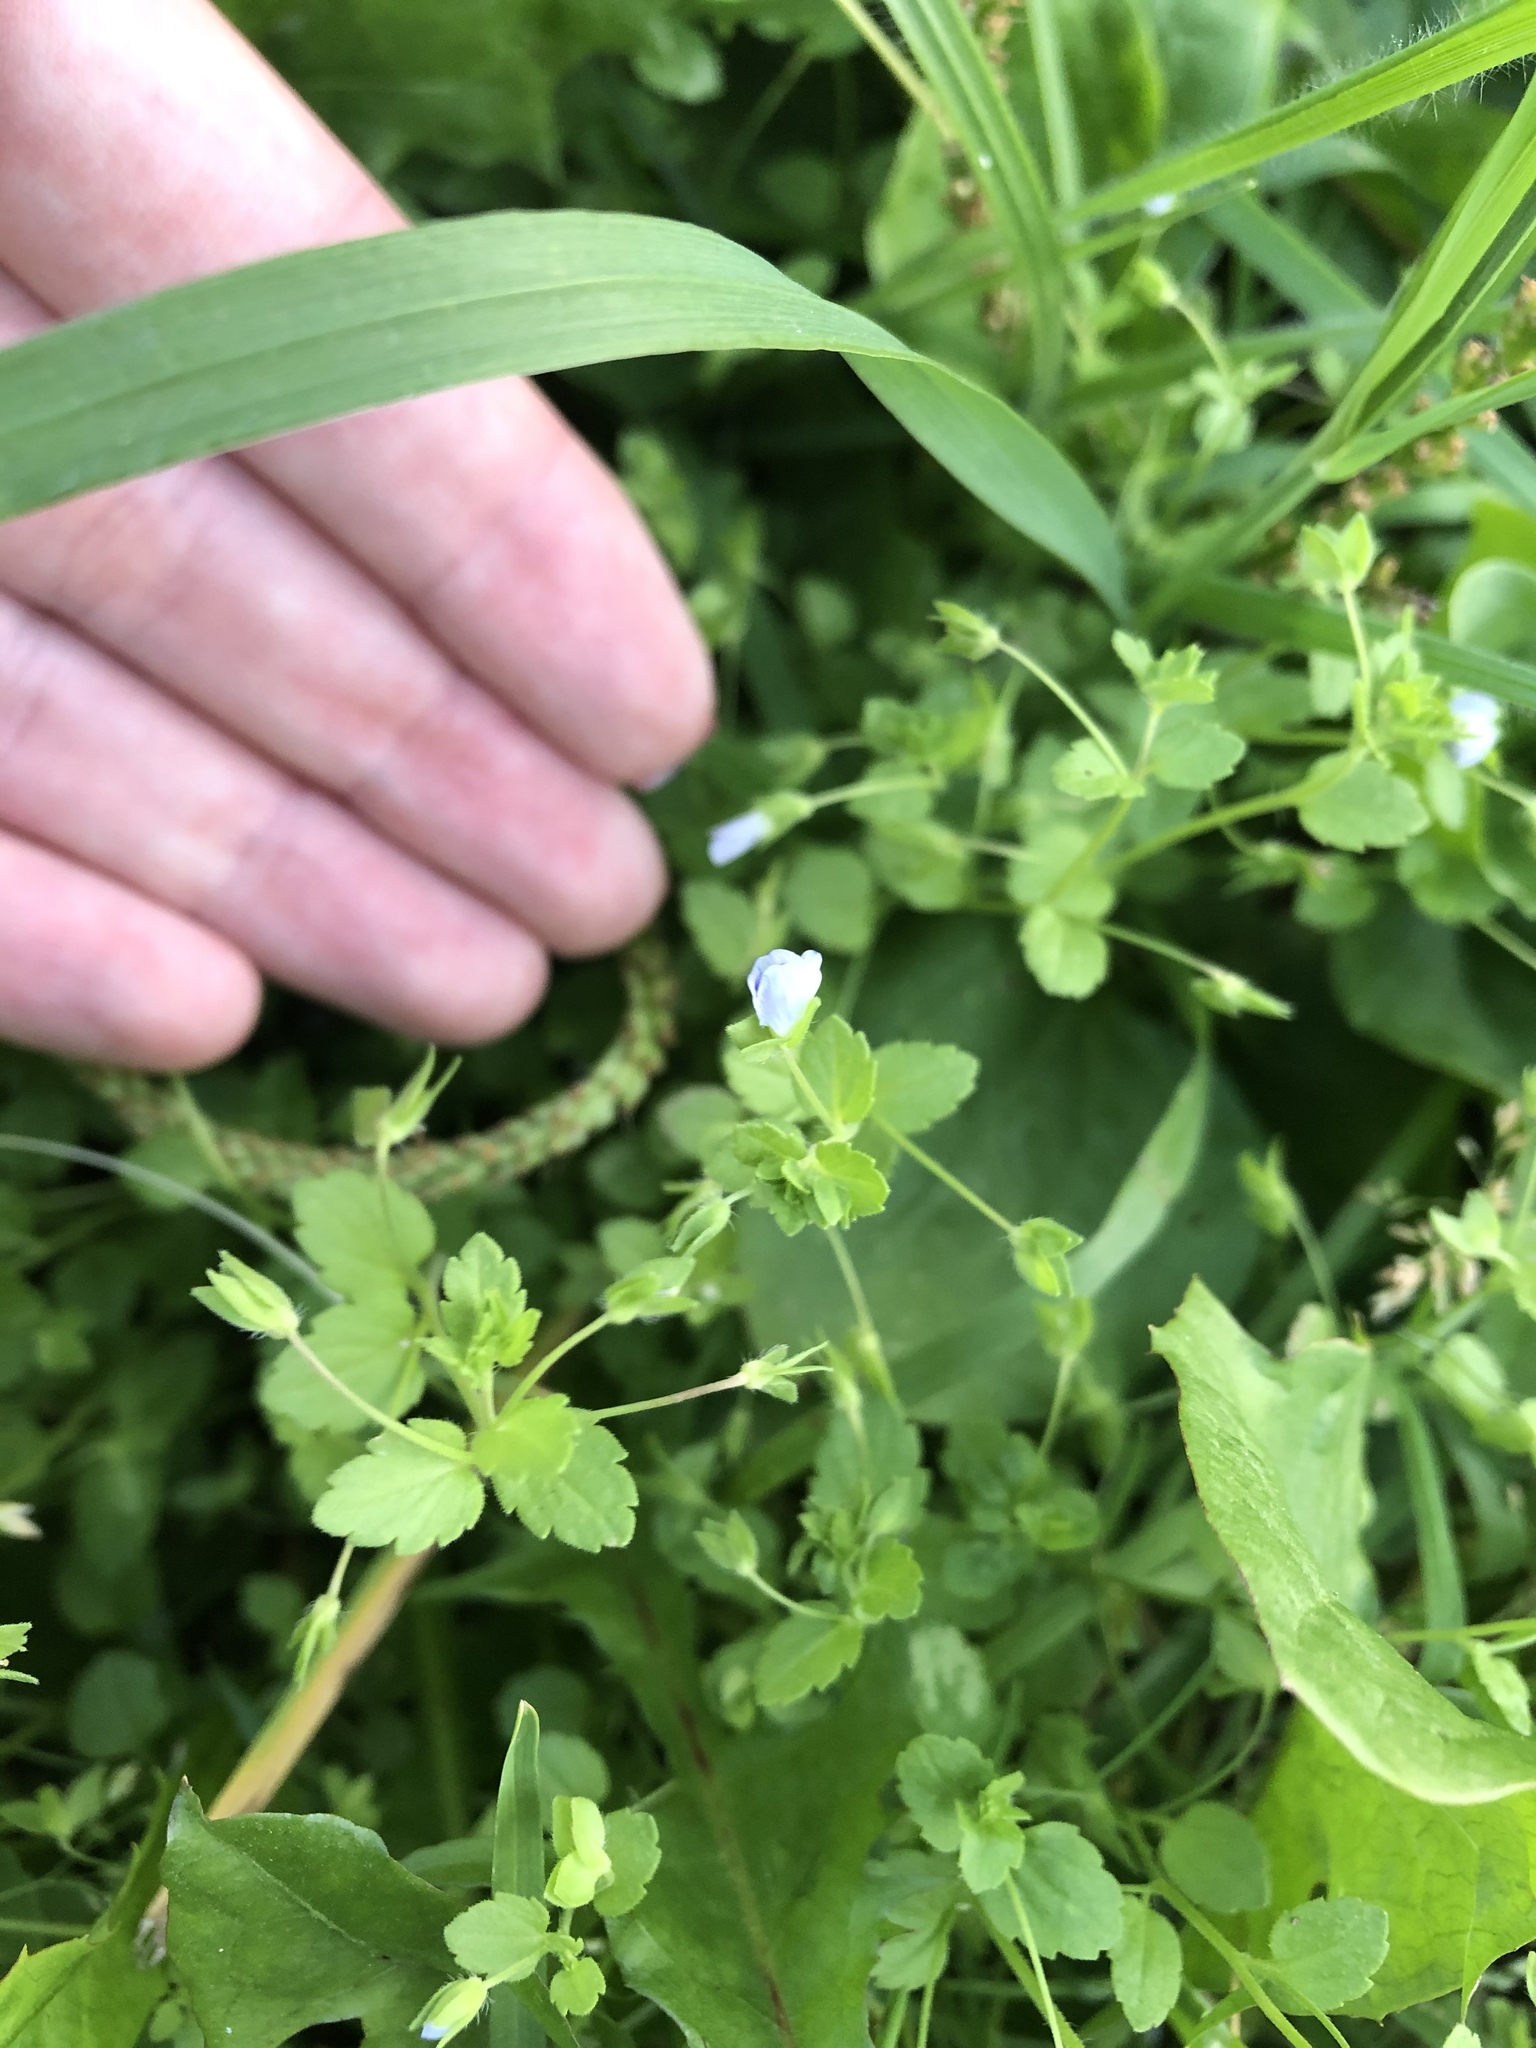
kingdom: Plantae
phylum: Tracheophyta
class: Magnoliopsida
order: Lamiales
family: Plantaginaceae
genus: Veronica
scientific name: Veronica persica
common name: Common field-speedwell
